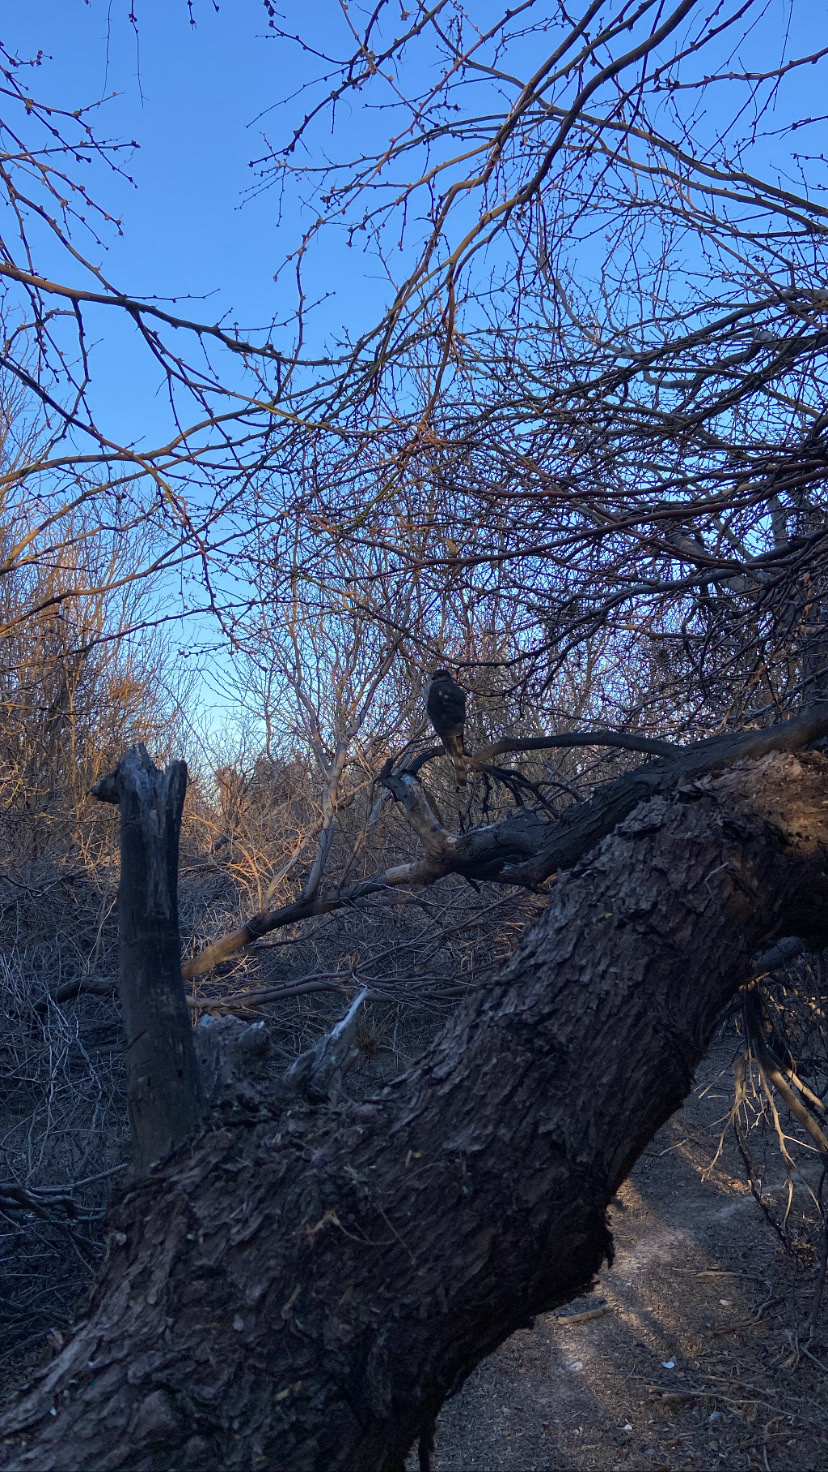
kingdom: Animalia
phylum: Chordata
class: Aves
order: Accipitriformes
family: Accipitridae
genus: Accipiter
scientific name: Accipiter striatus
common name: Sharp-shinned hawk
